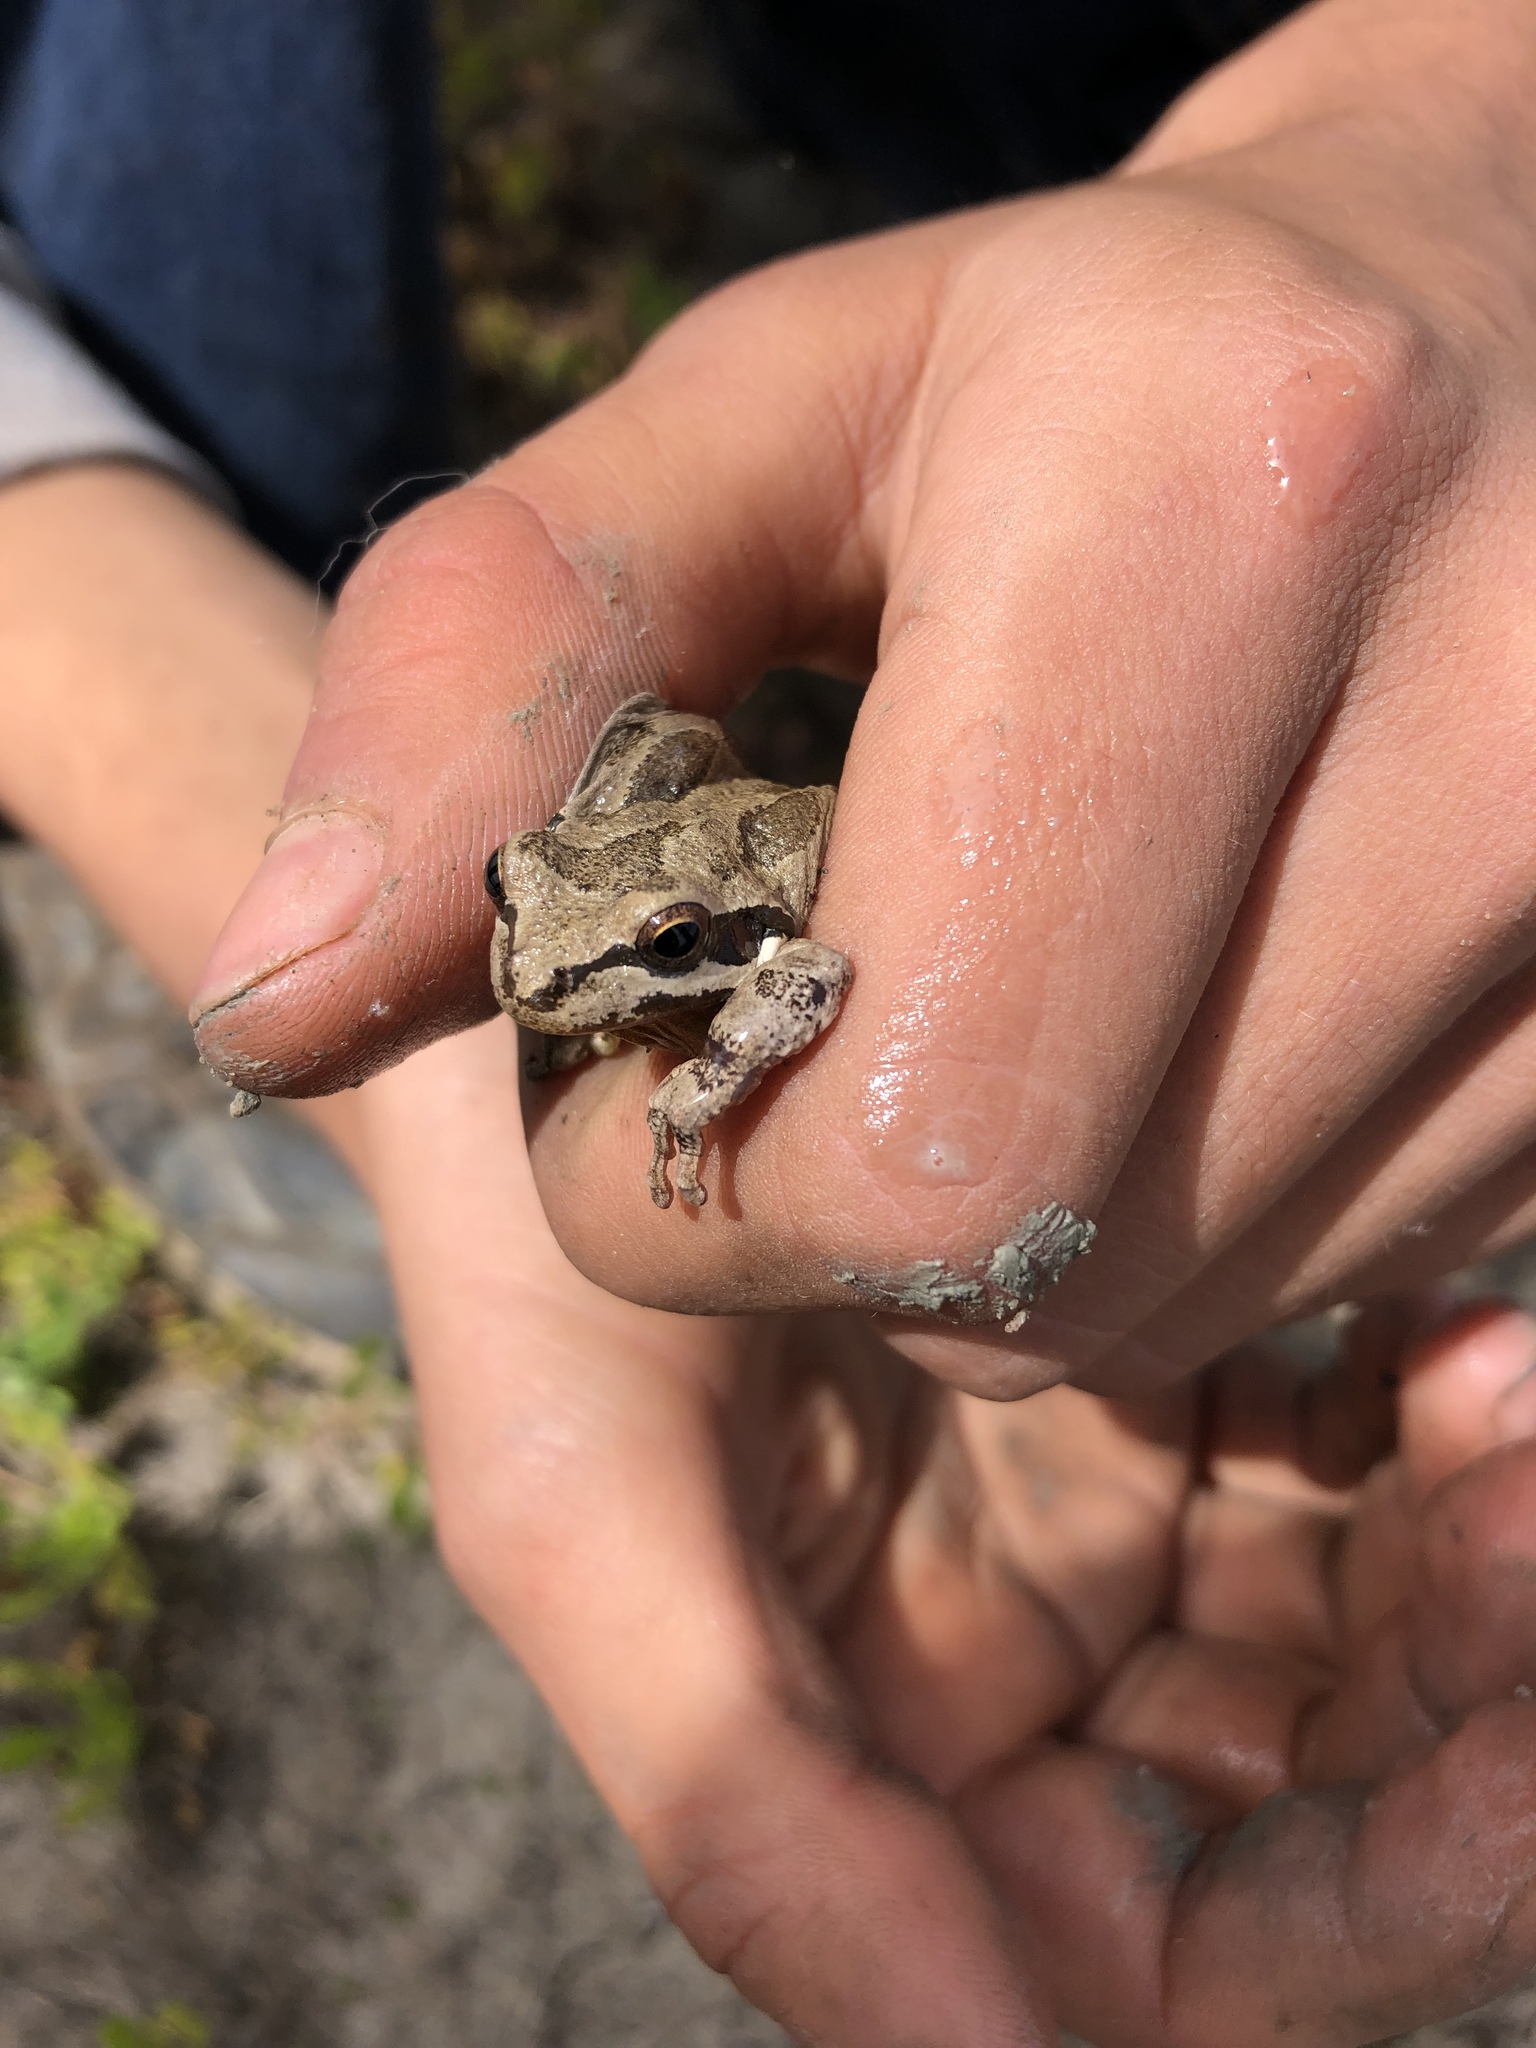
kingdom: Animalia
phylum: Chordata
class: Amphibia
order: Anura
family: Hylidae
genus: Pseudacris
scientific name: Pseudacris regilla
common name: Pacific chorus frog
